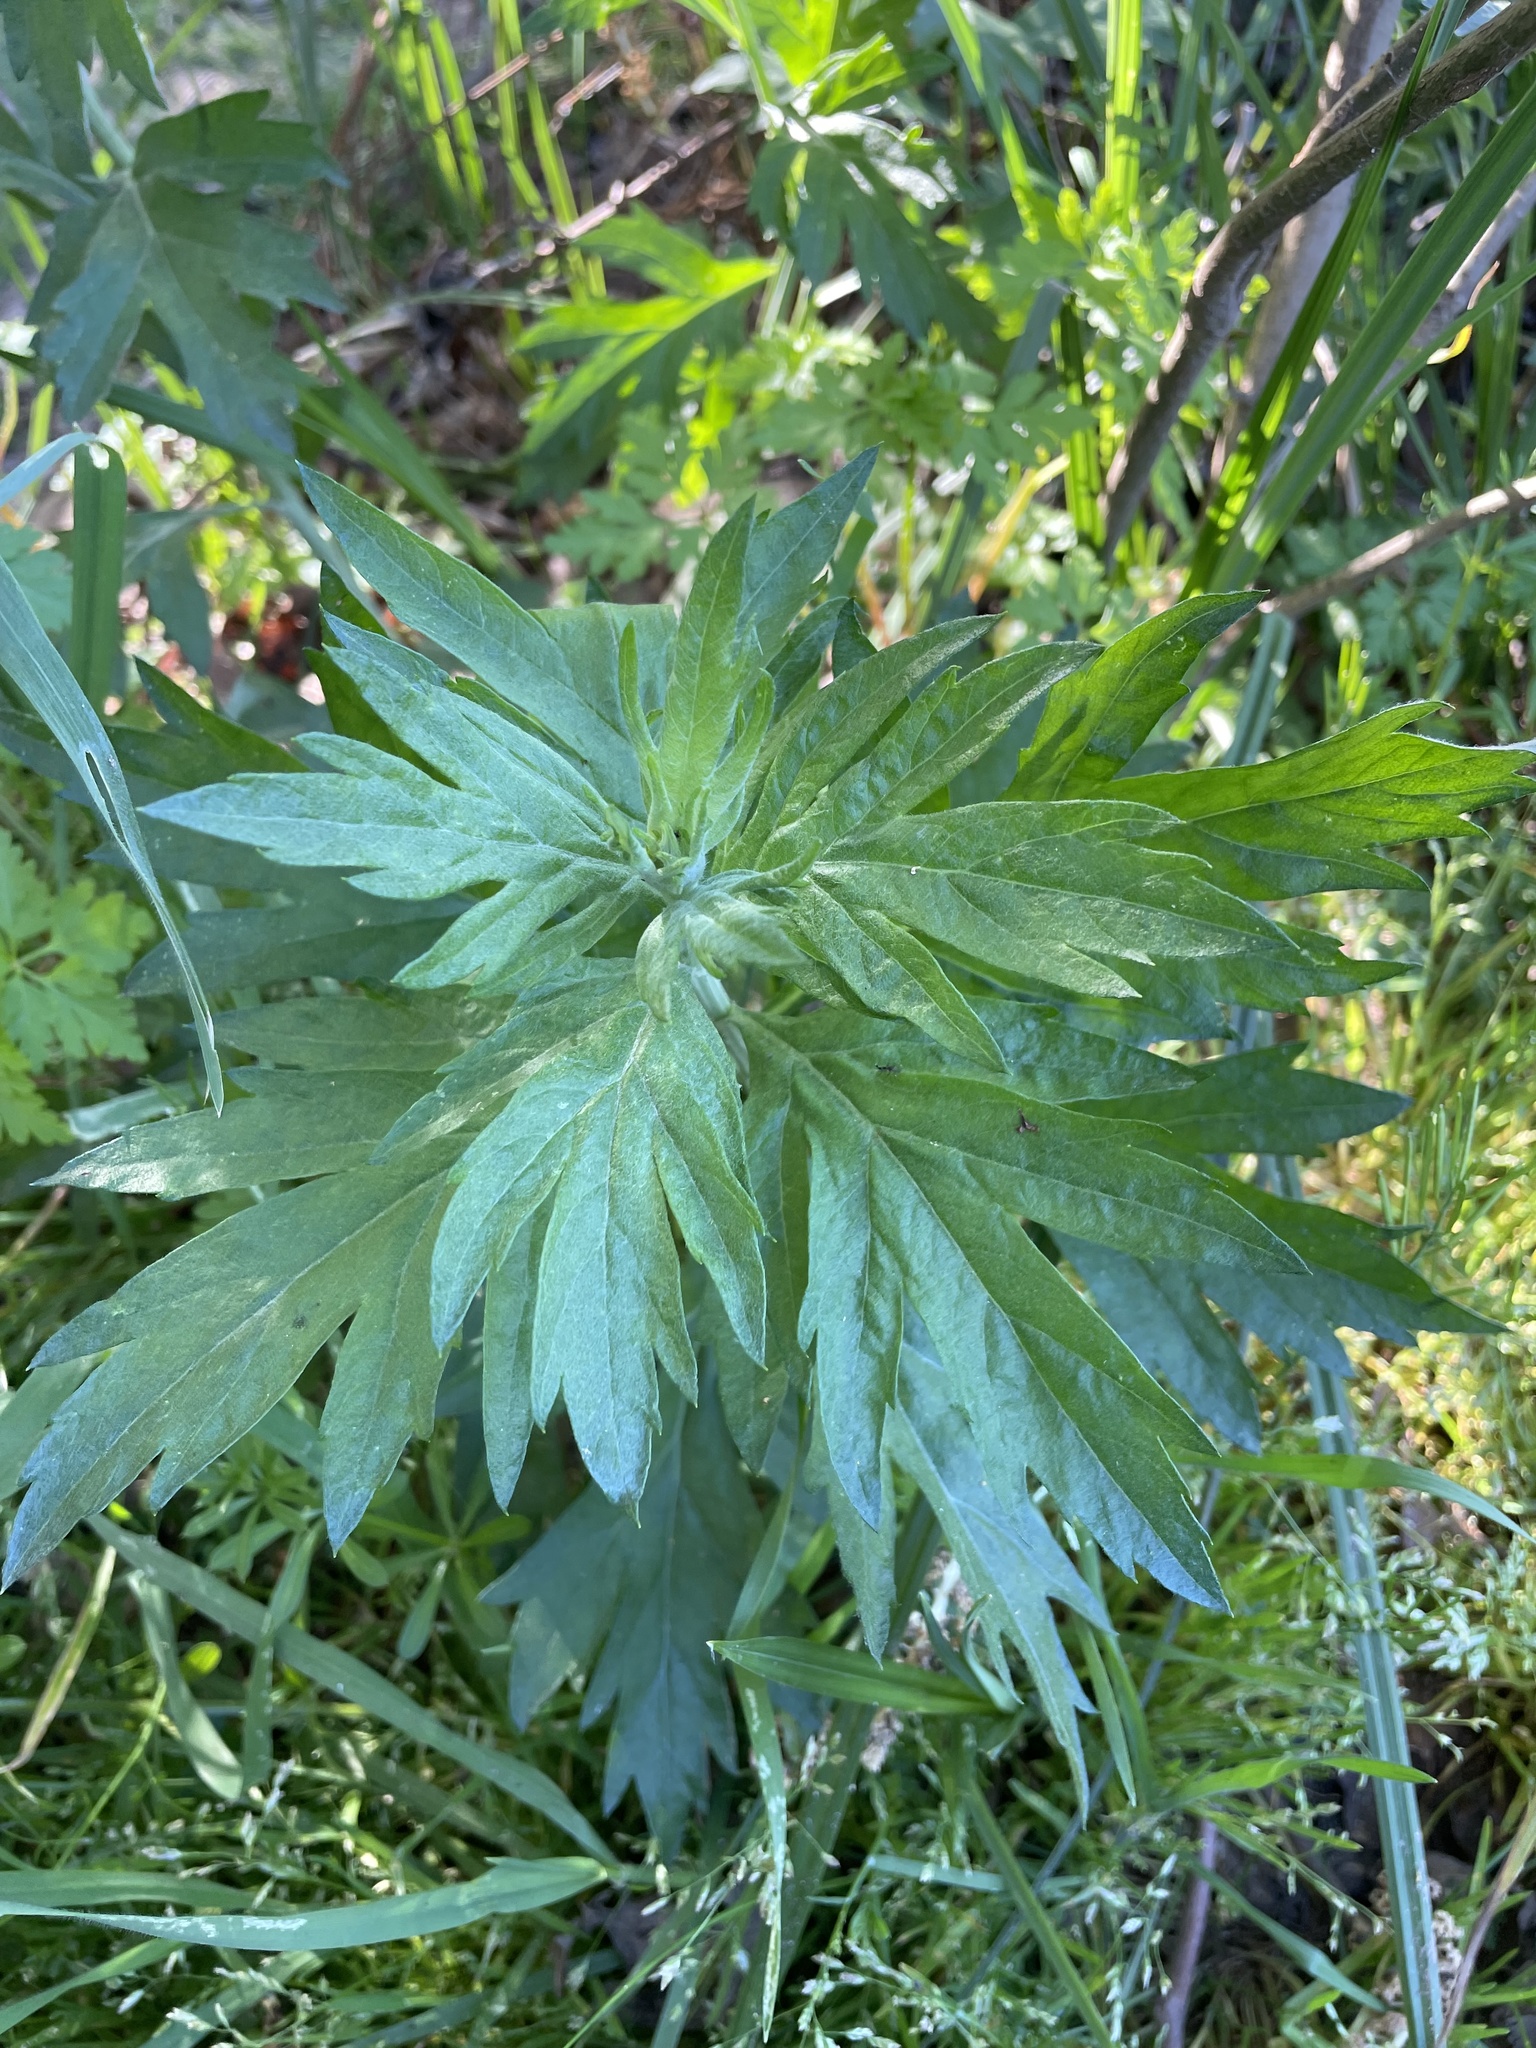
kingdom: Plantae
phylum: Tracheophyta
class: Magnoliopsida
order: Asterales
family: Asteraceae
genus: Artemisia
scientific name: Artemisia douglasiana
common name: Northwest mugwort
